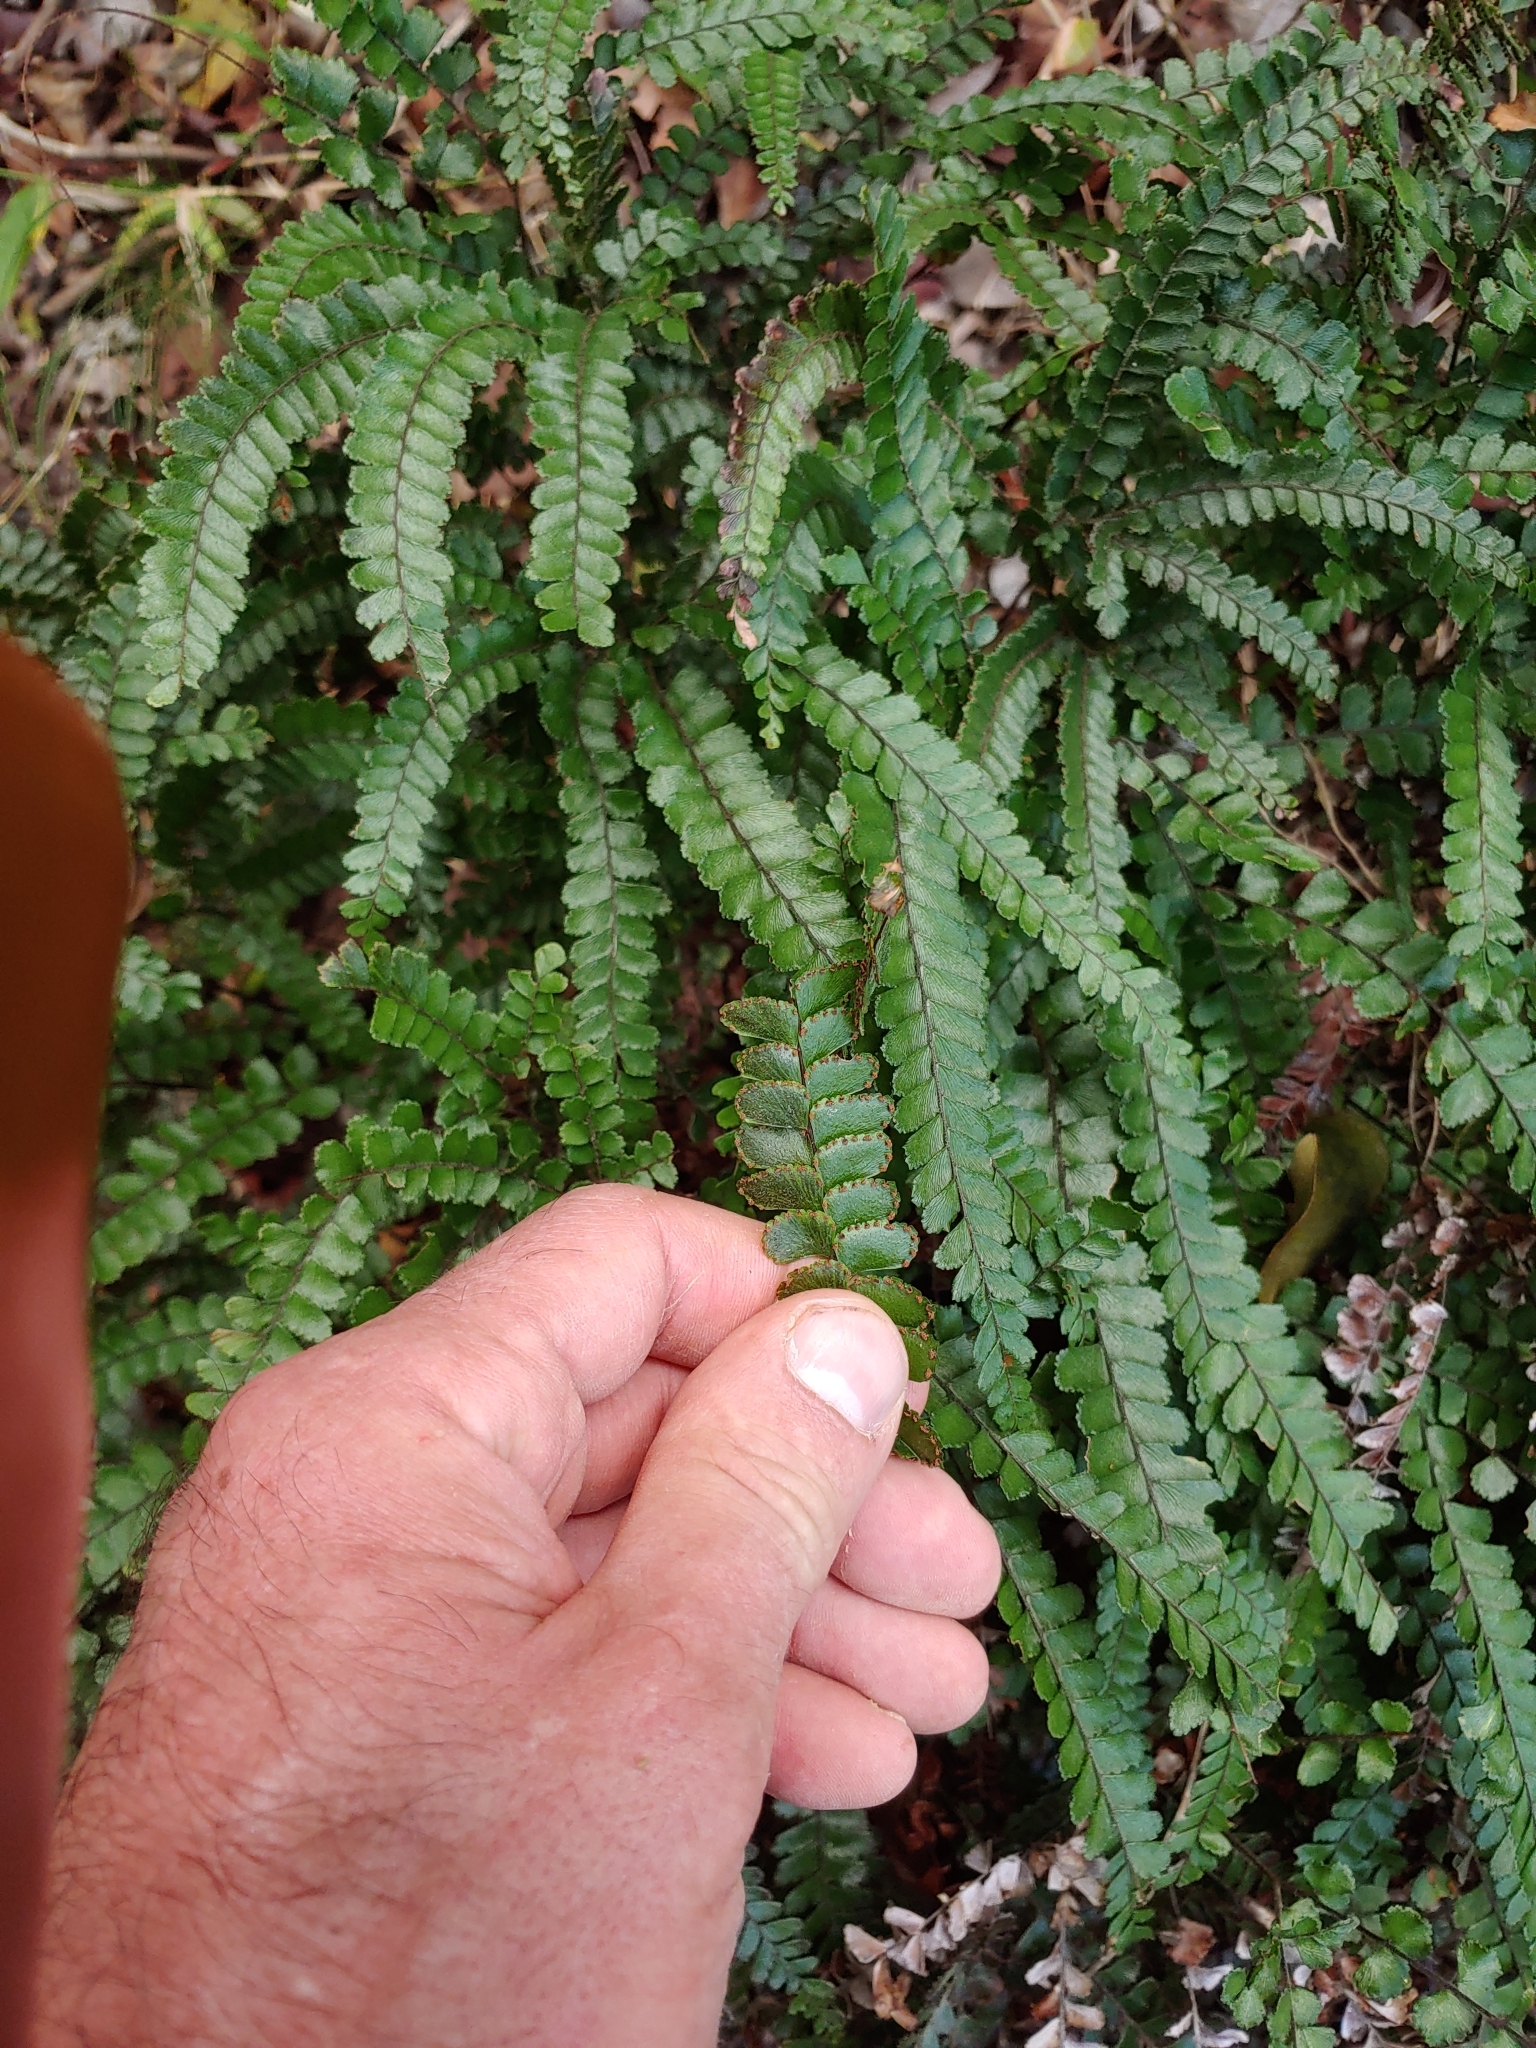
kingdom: Plantae
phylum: Tracheophyta
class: Polypodiopsida
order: Polypodiales
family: Pteridaceae
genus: Adiantum
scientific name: Adiantum hispidulum
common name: Rough maidenhair
